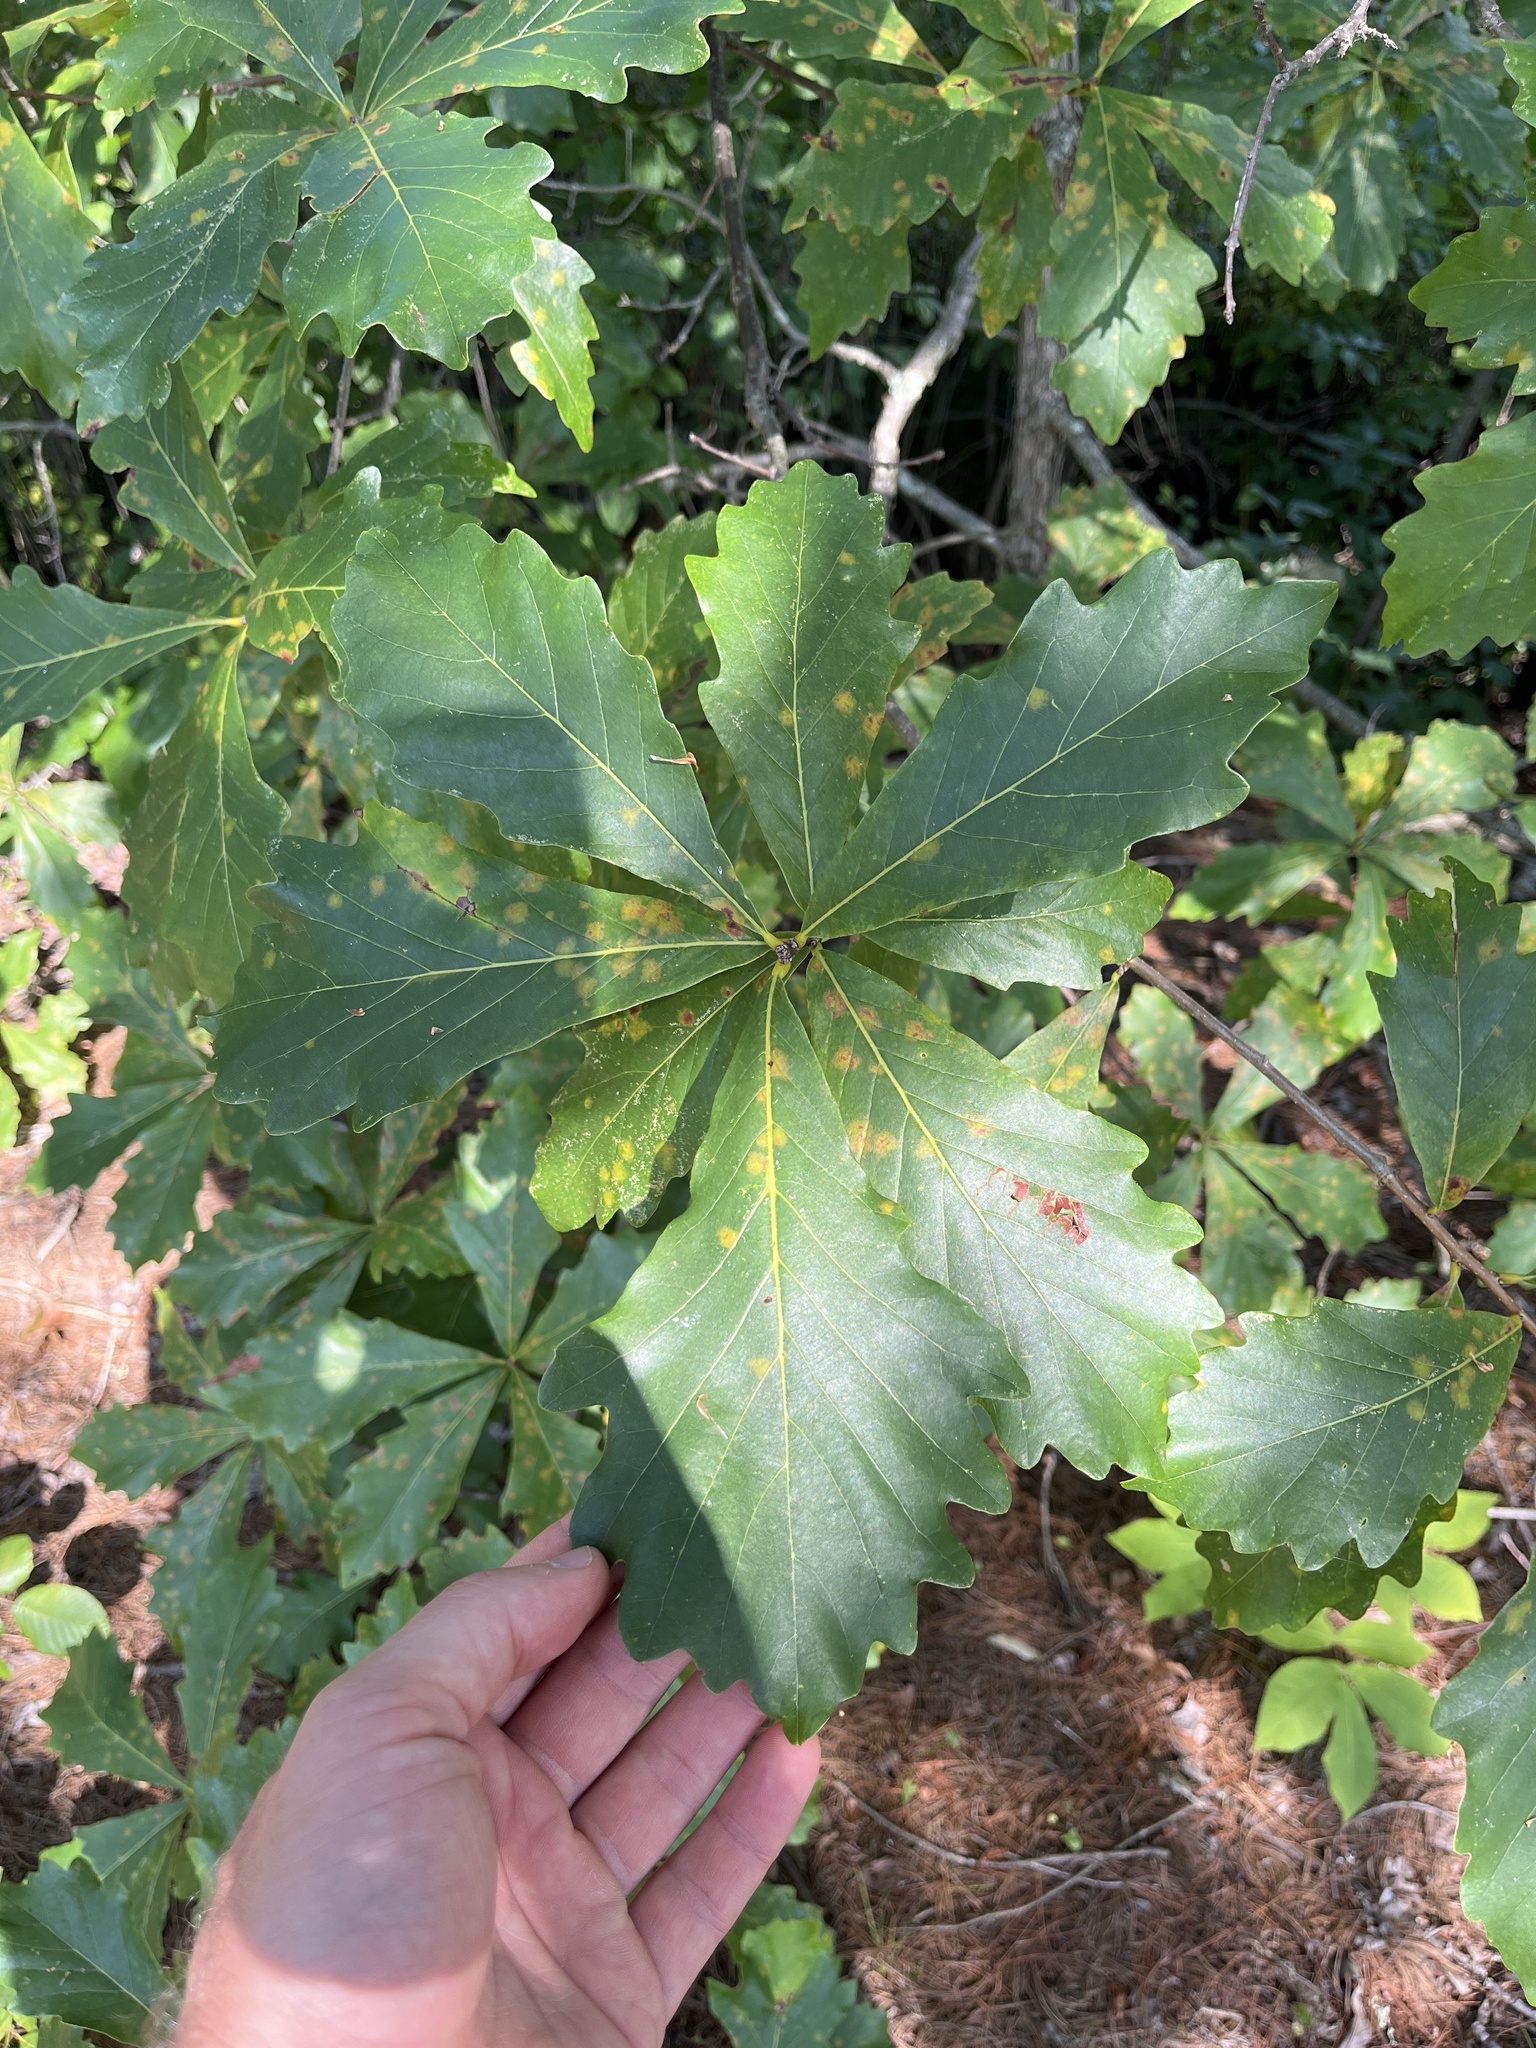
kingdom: Plantae
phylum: Tracheophyta
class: Magnoliopsida
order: Fagales
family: Fagaceae
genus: Quercus
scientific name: Quercus montana
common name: Chestnut oak
